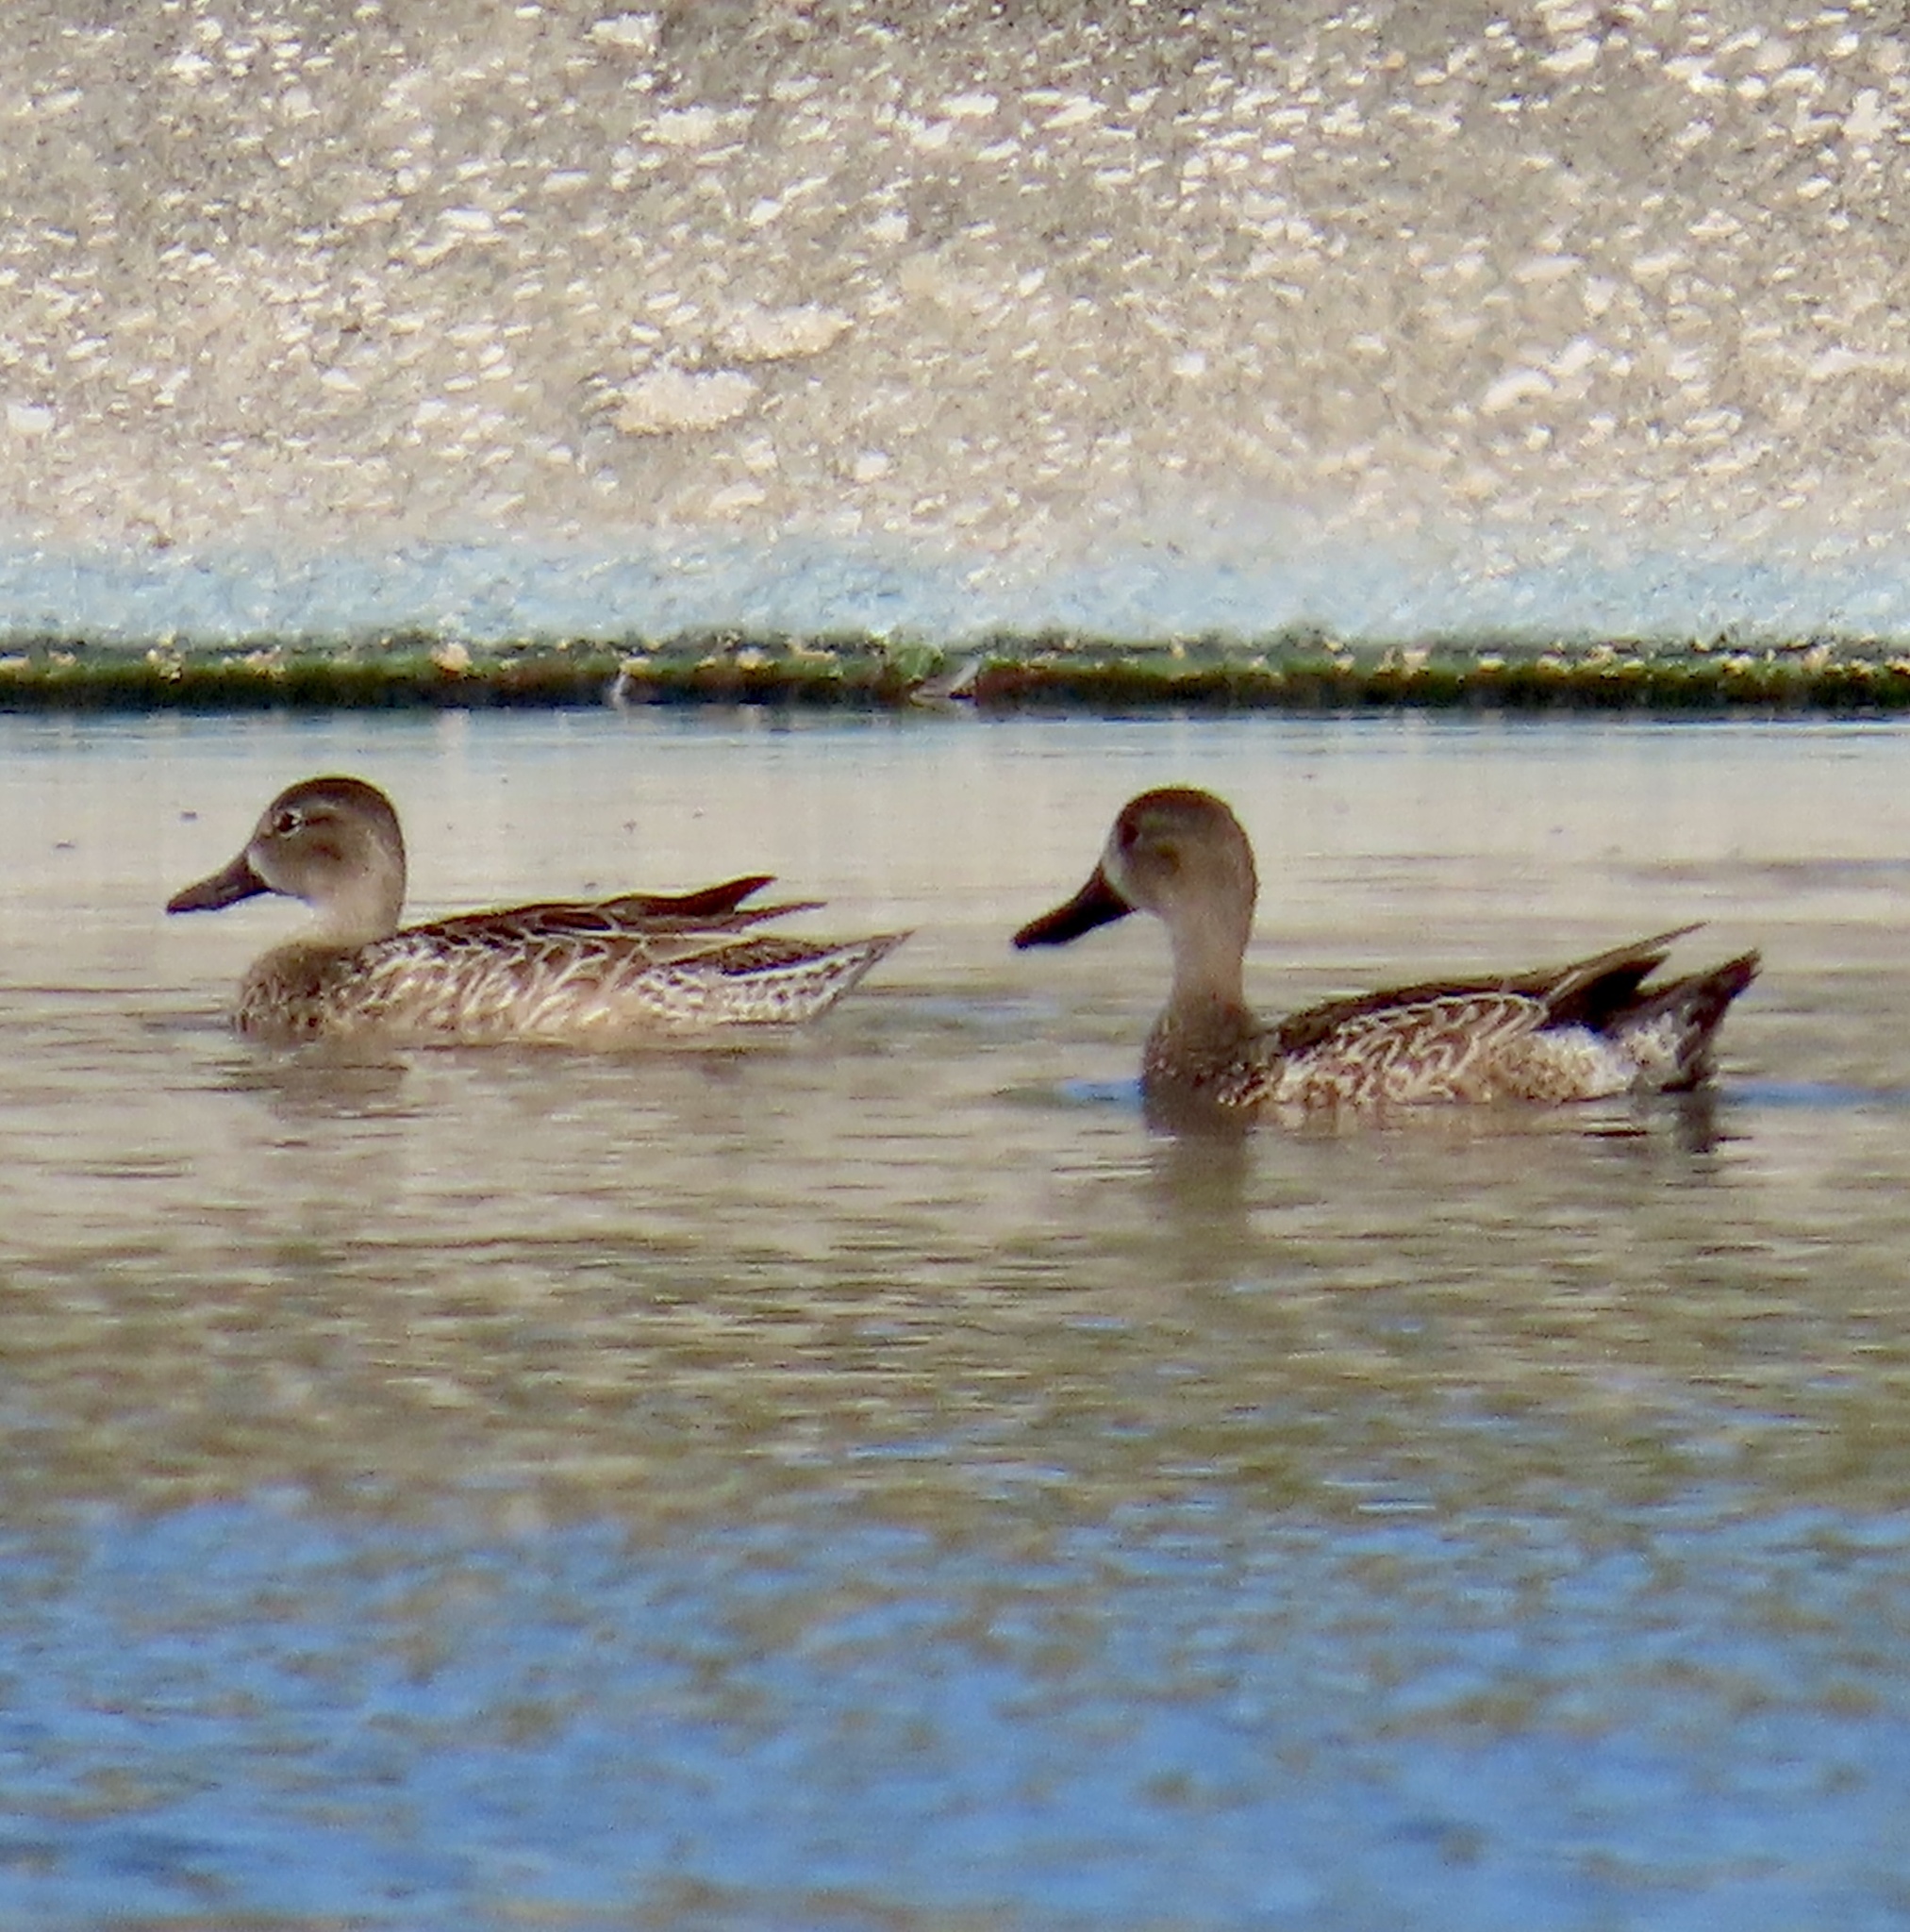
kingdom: Animalia
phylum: Chordata
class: Aves
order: Anseriformes
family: Anatidae
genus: Spatula
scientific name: Spatula discors
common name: Blue-winged teal
